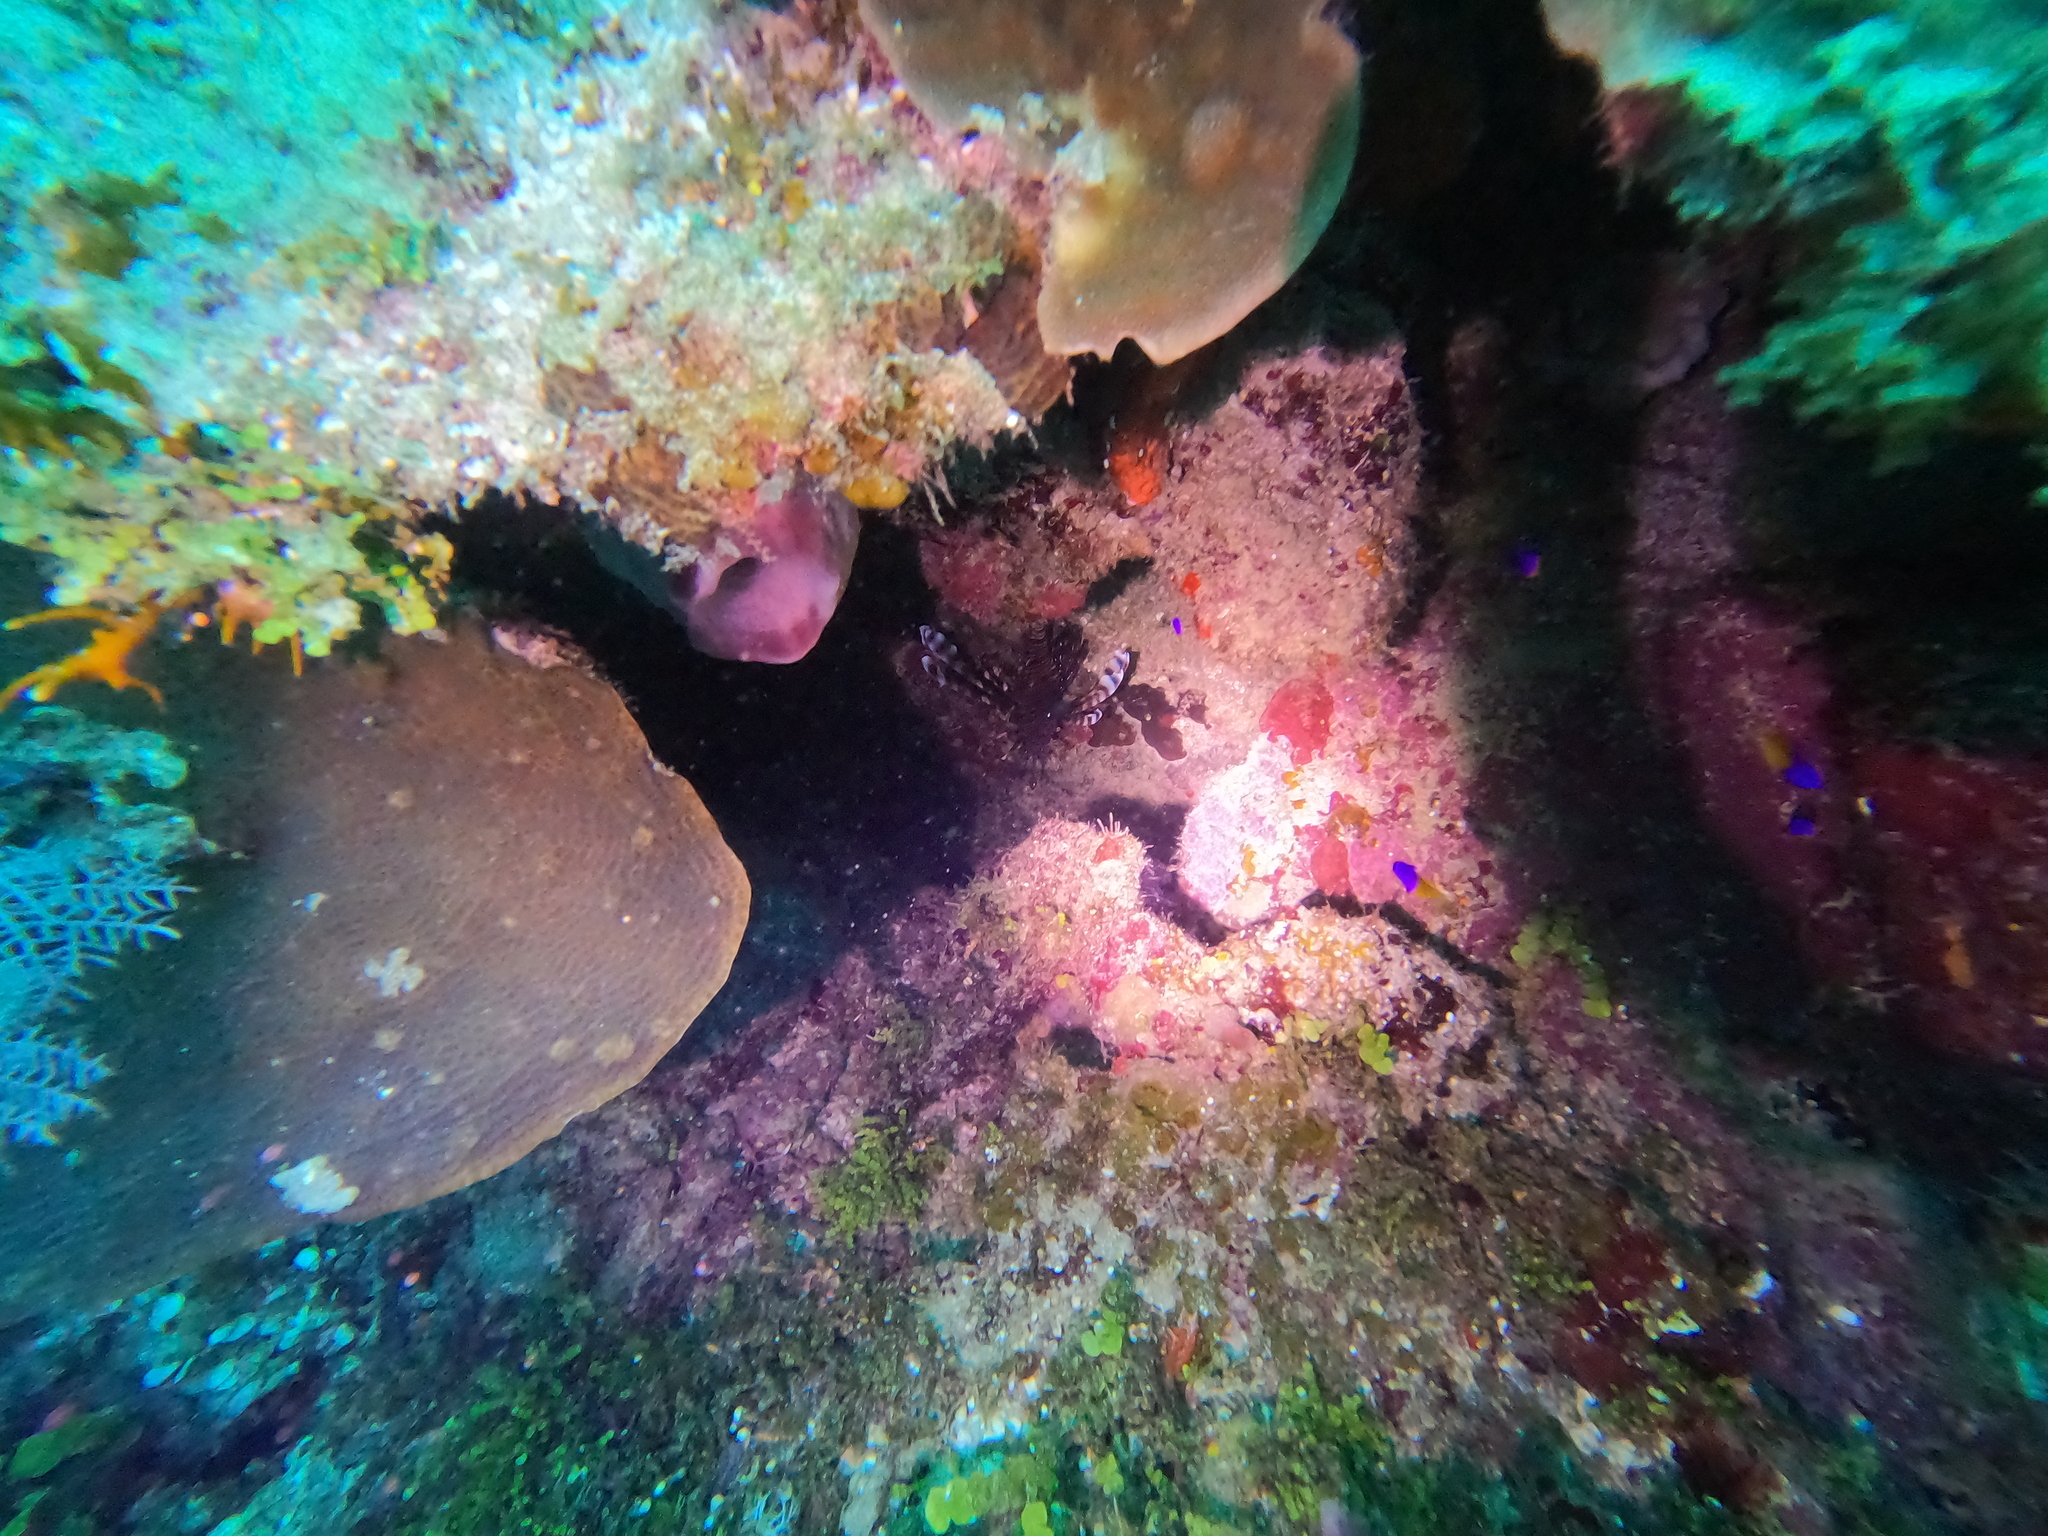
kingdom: Animalia
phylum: Chordata
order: Scorpaeniformes
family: Scorpaenidae
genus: Pterois
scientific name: Pterois volitans
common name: Lionfish
